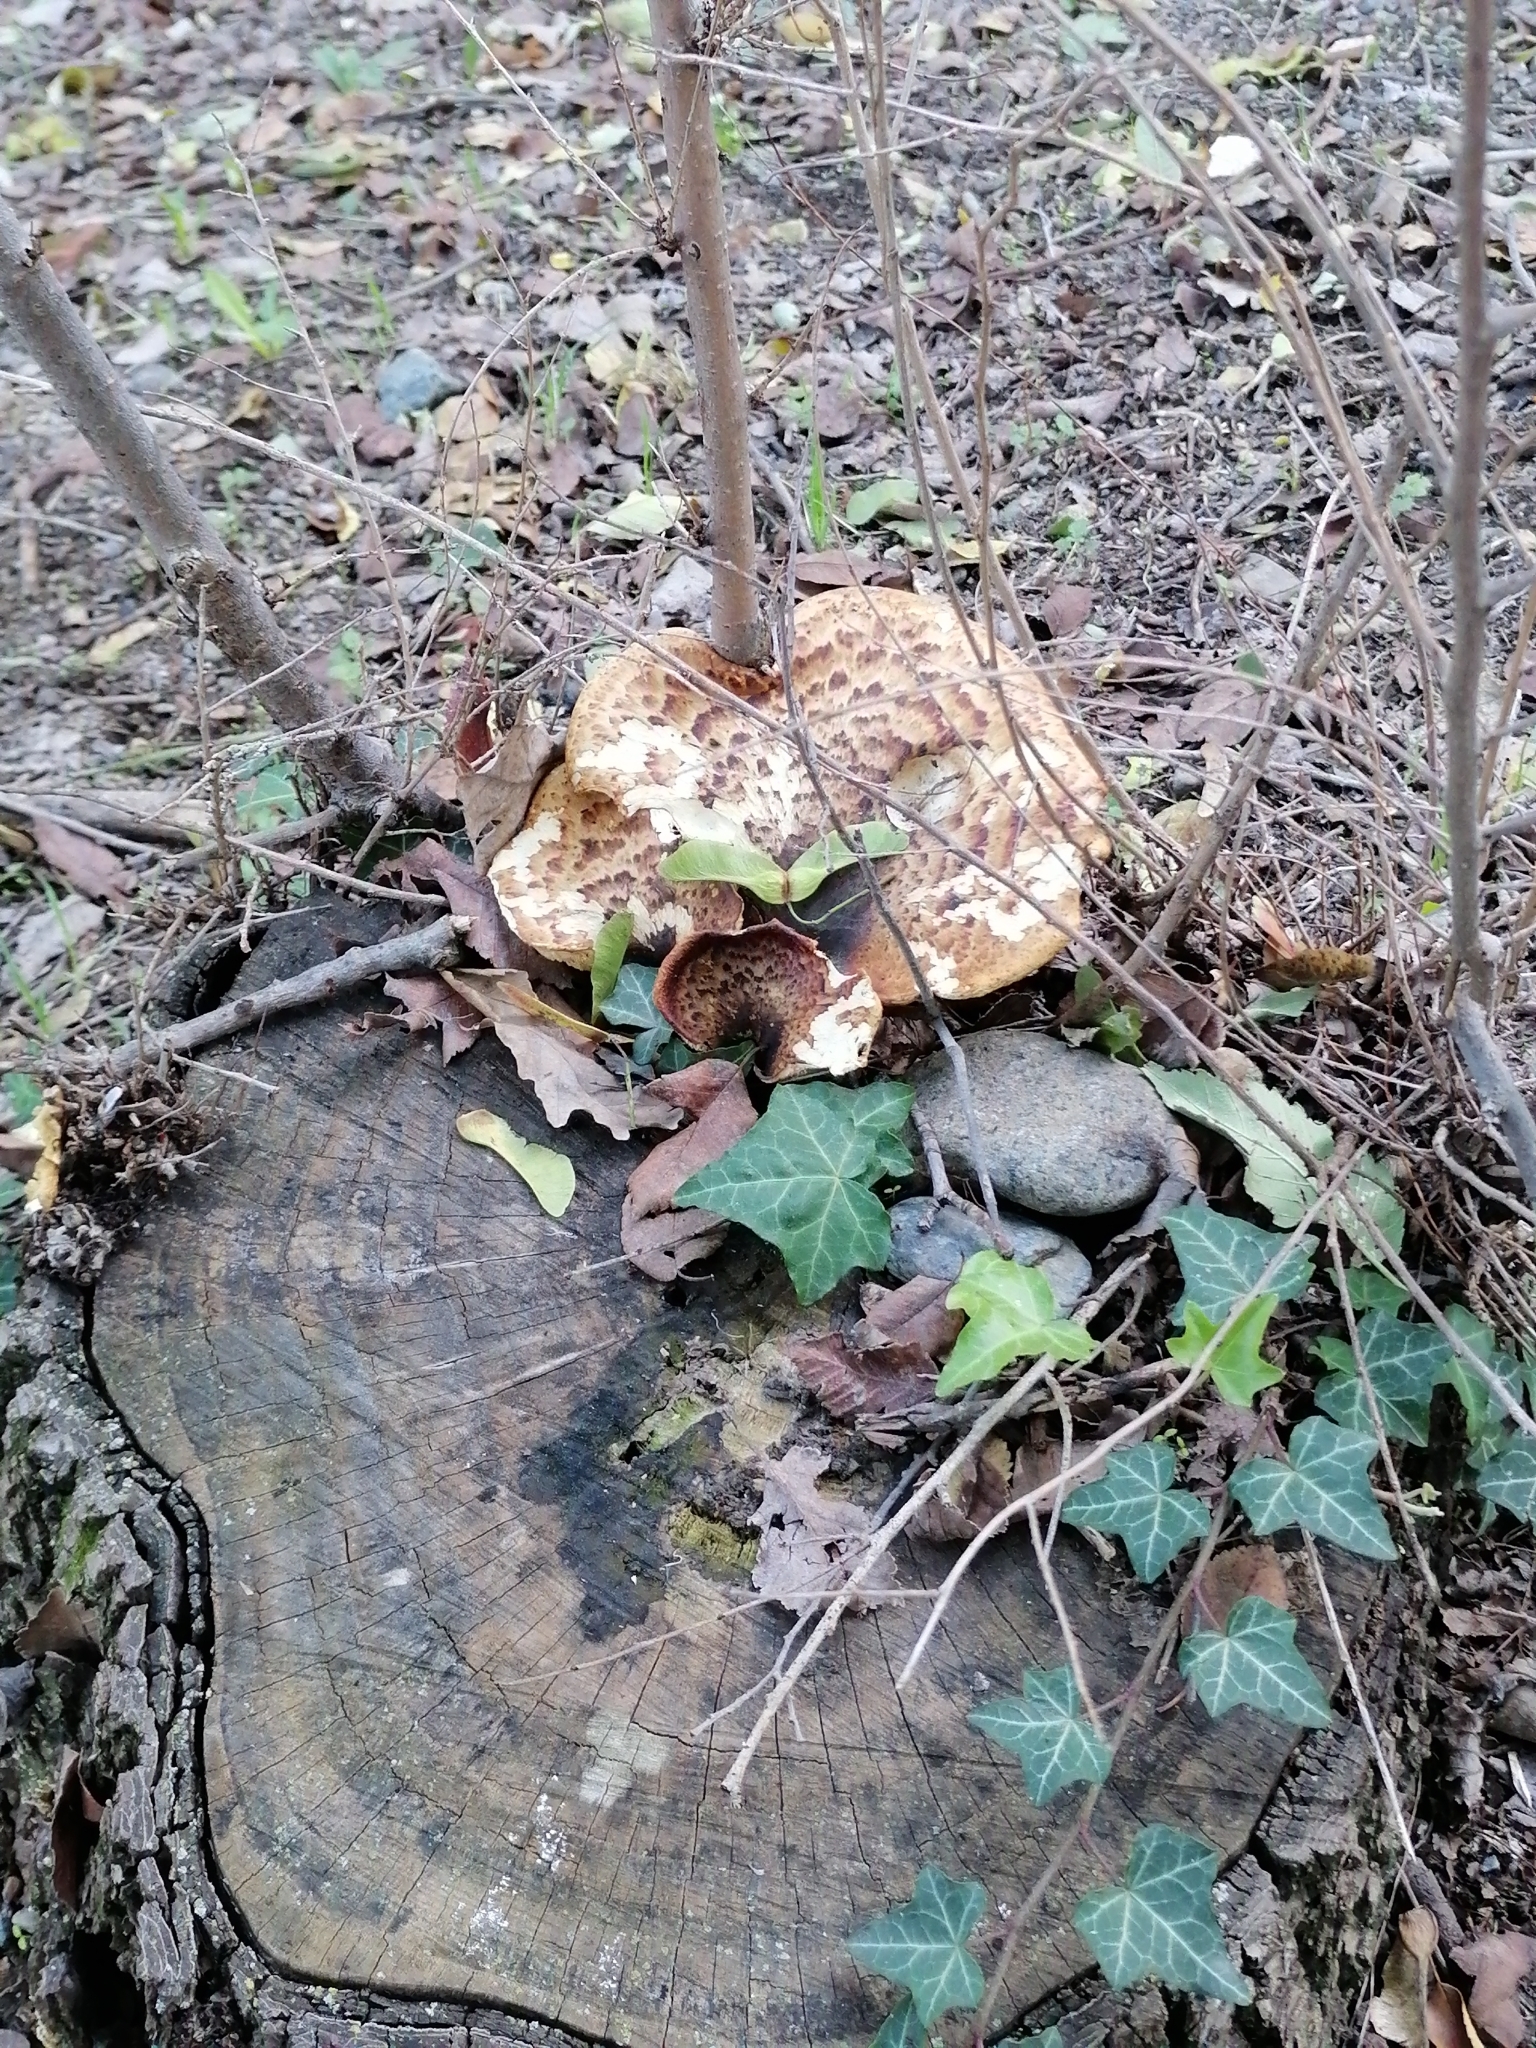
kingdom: Fungi
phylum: Basidiomycota
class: Agaricomycetes
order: Polyporales
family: Polyporaceae
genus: Cerioporus
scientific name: Cerioporus squamosus
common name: Dryad's saddle
